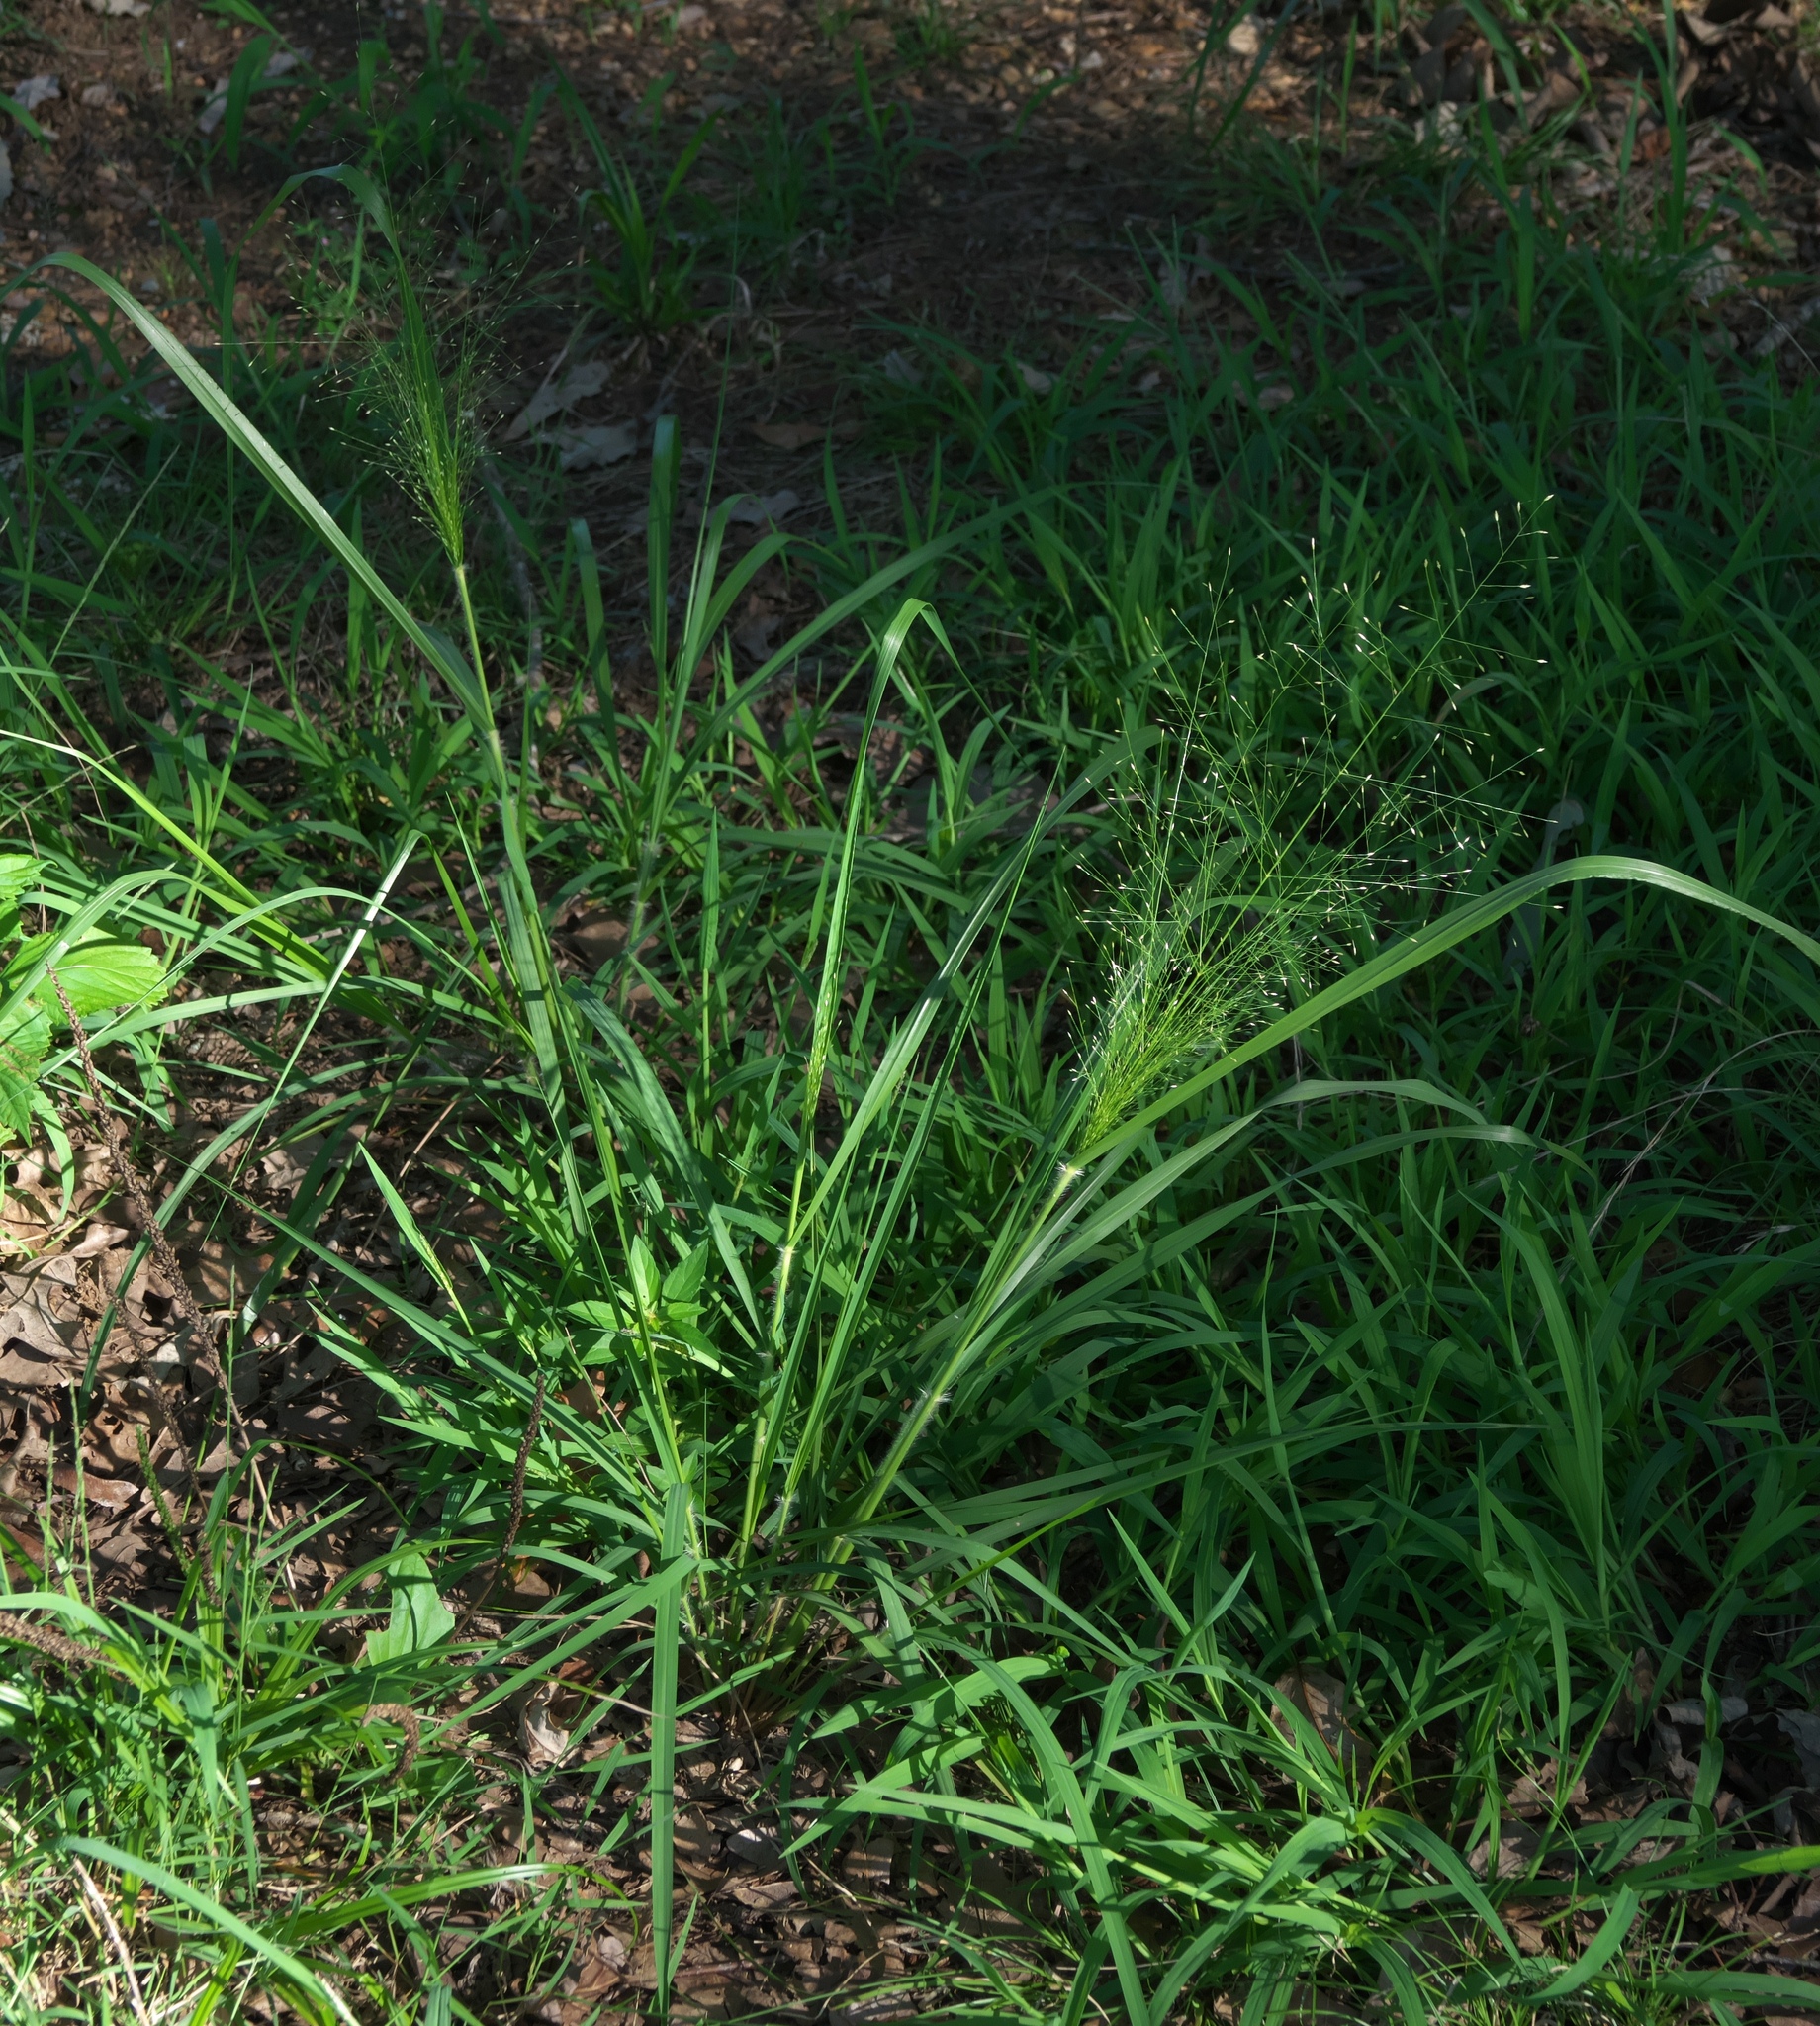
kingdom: Plantae
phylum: Tracheophyta
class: Liliopsida
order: Poales
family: Poaceae
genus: Panicum
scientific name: Panicum capillare
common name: Witch-grass
